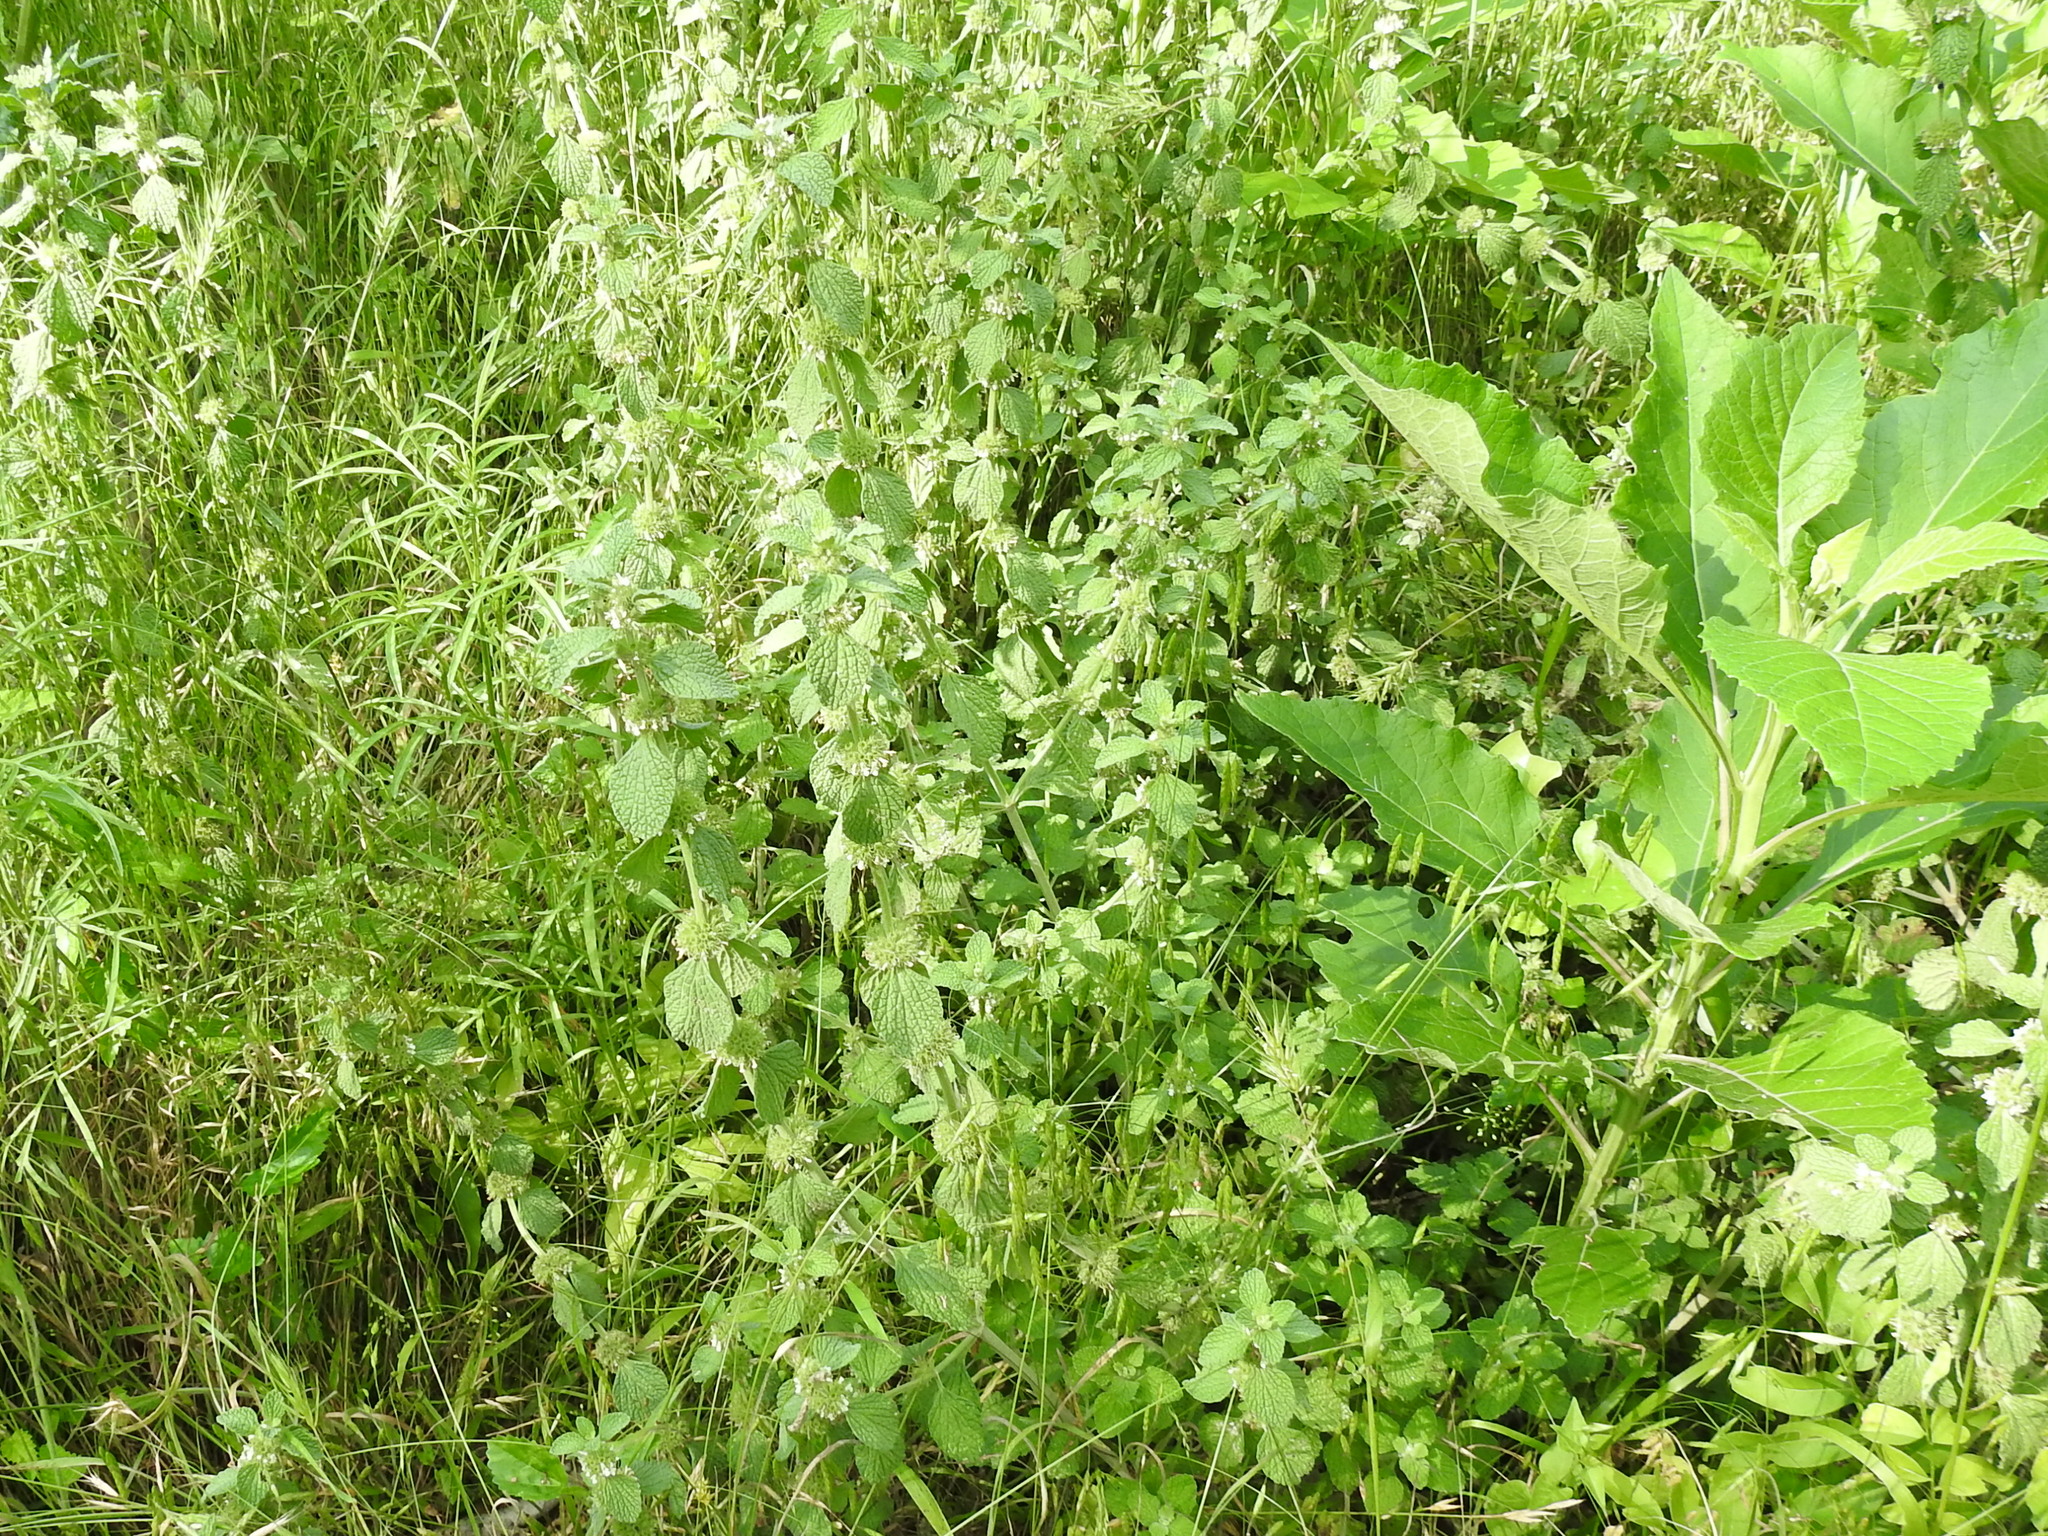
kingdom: Plantae
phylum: Tracheophyta
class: Magnoliopsida
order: Lamiales
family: Lamiaceae
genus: Marrubium
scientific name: Marrubium vulgare
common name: Horehound
